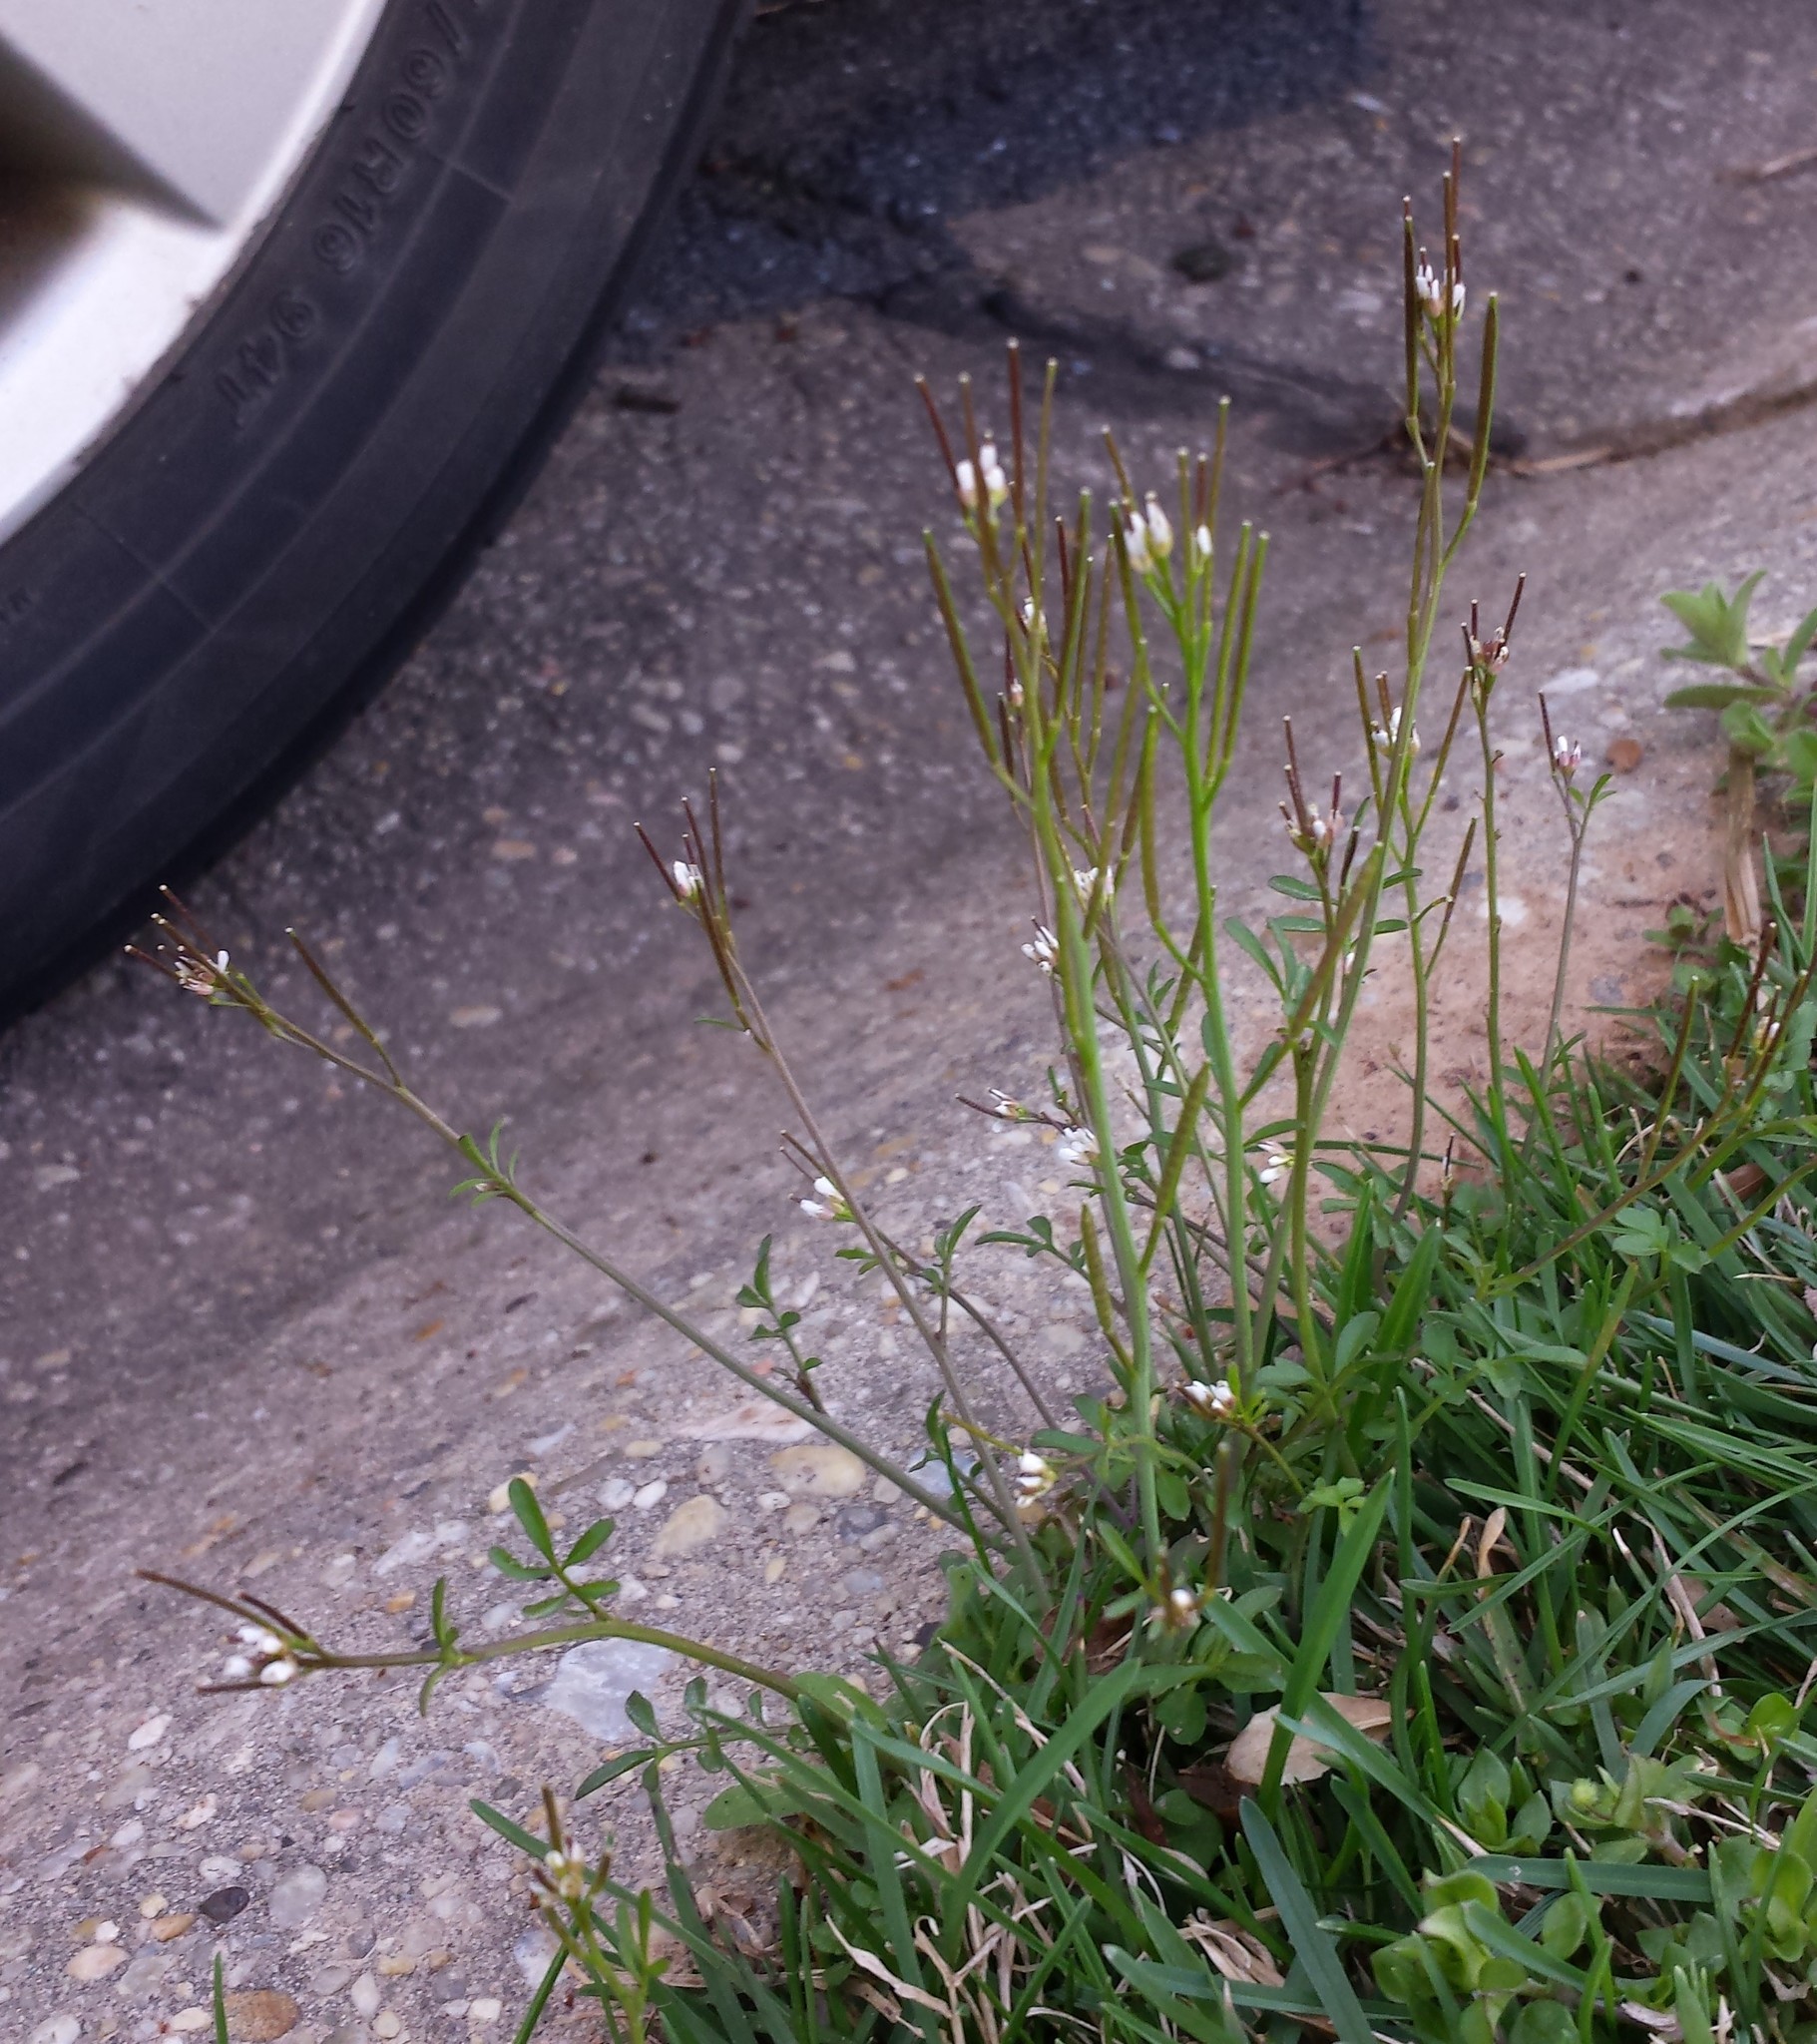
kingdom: Plantae
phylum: Tracheophyta
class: Magnoliopsida
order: Brassicales
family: Brassicaceae
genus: Cardamine
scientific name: Cardamine hirsuta
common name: Hairy bittercress
